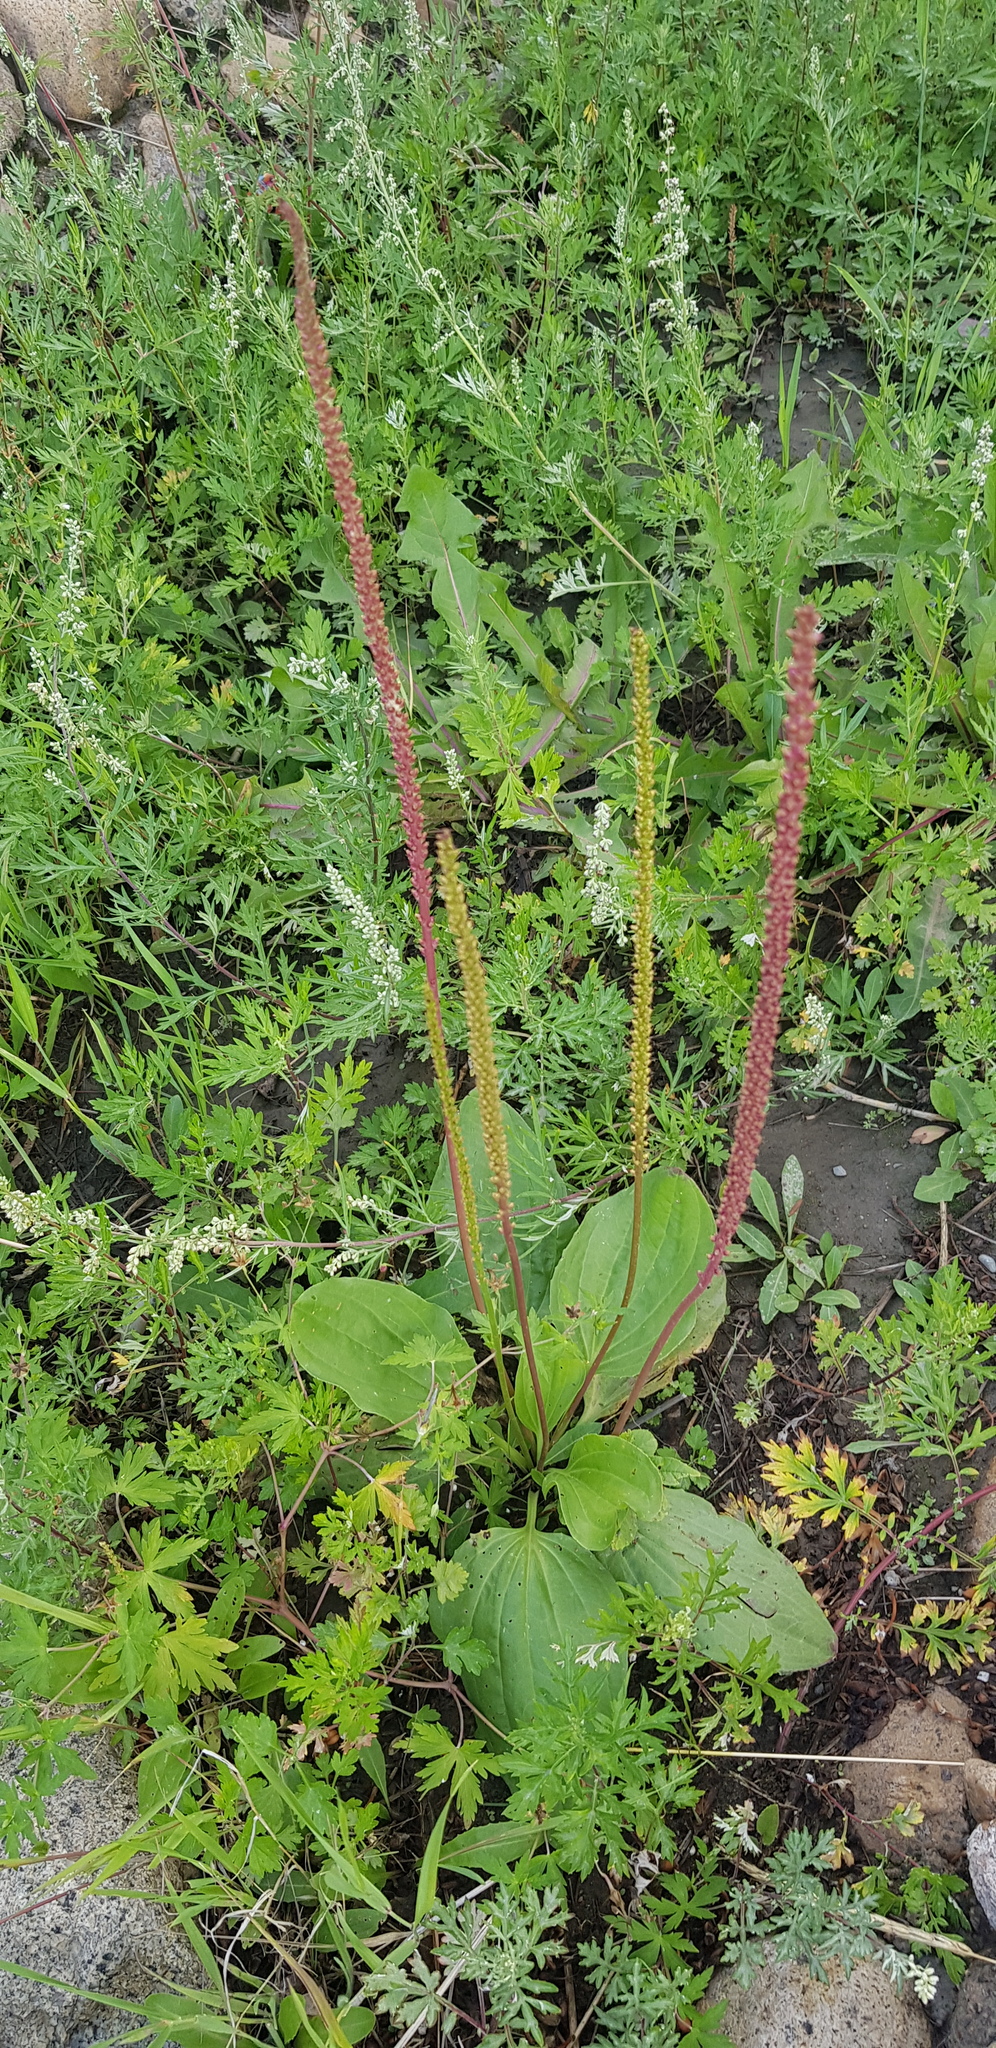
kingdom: Plantae
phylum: Tracheophyta
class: Magnoliopsida
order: Lamiales
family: Plantaginaceae
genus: Plantago
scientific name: Plantago major
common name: Common plantain
